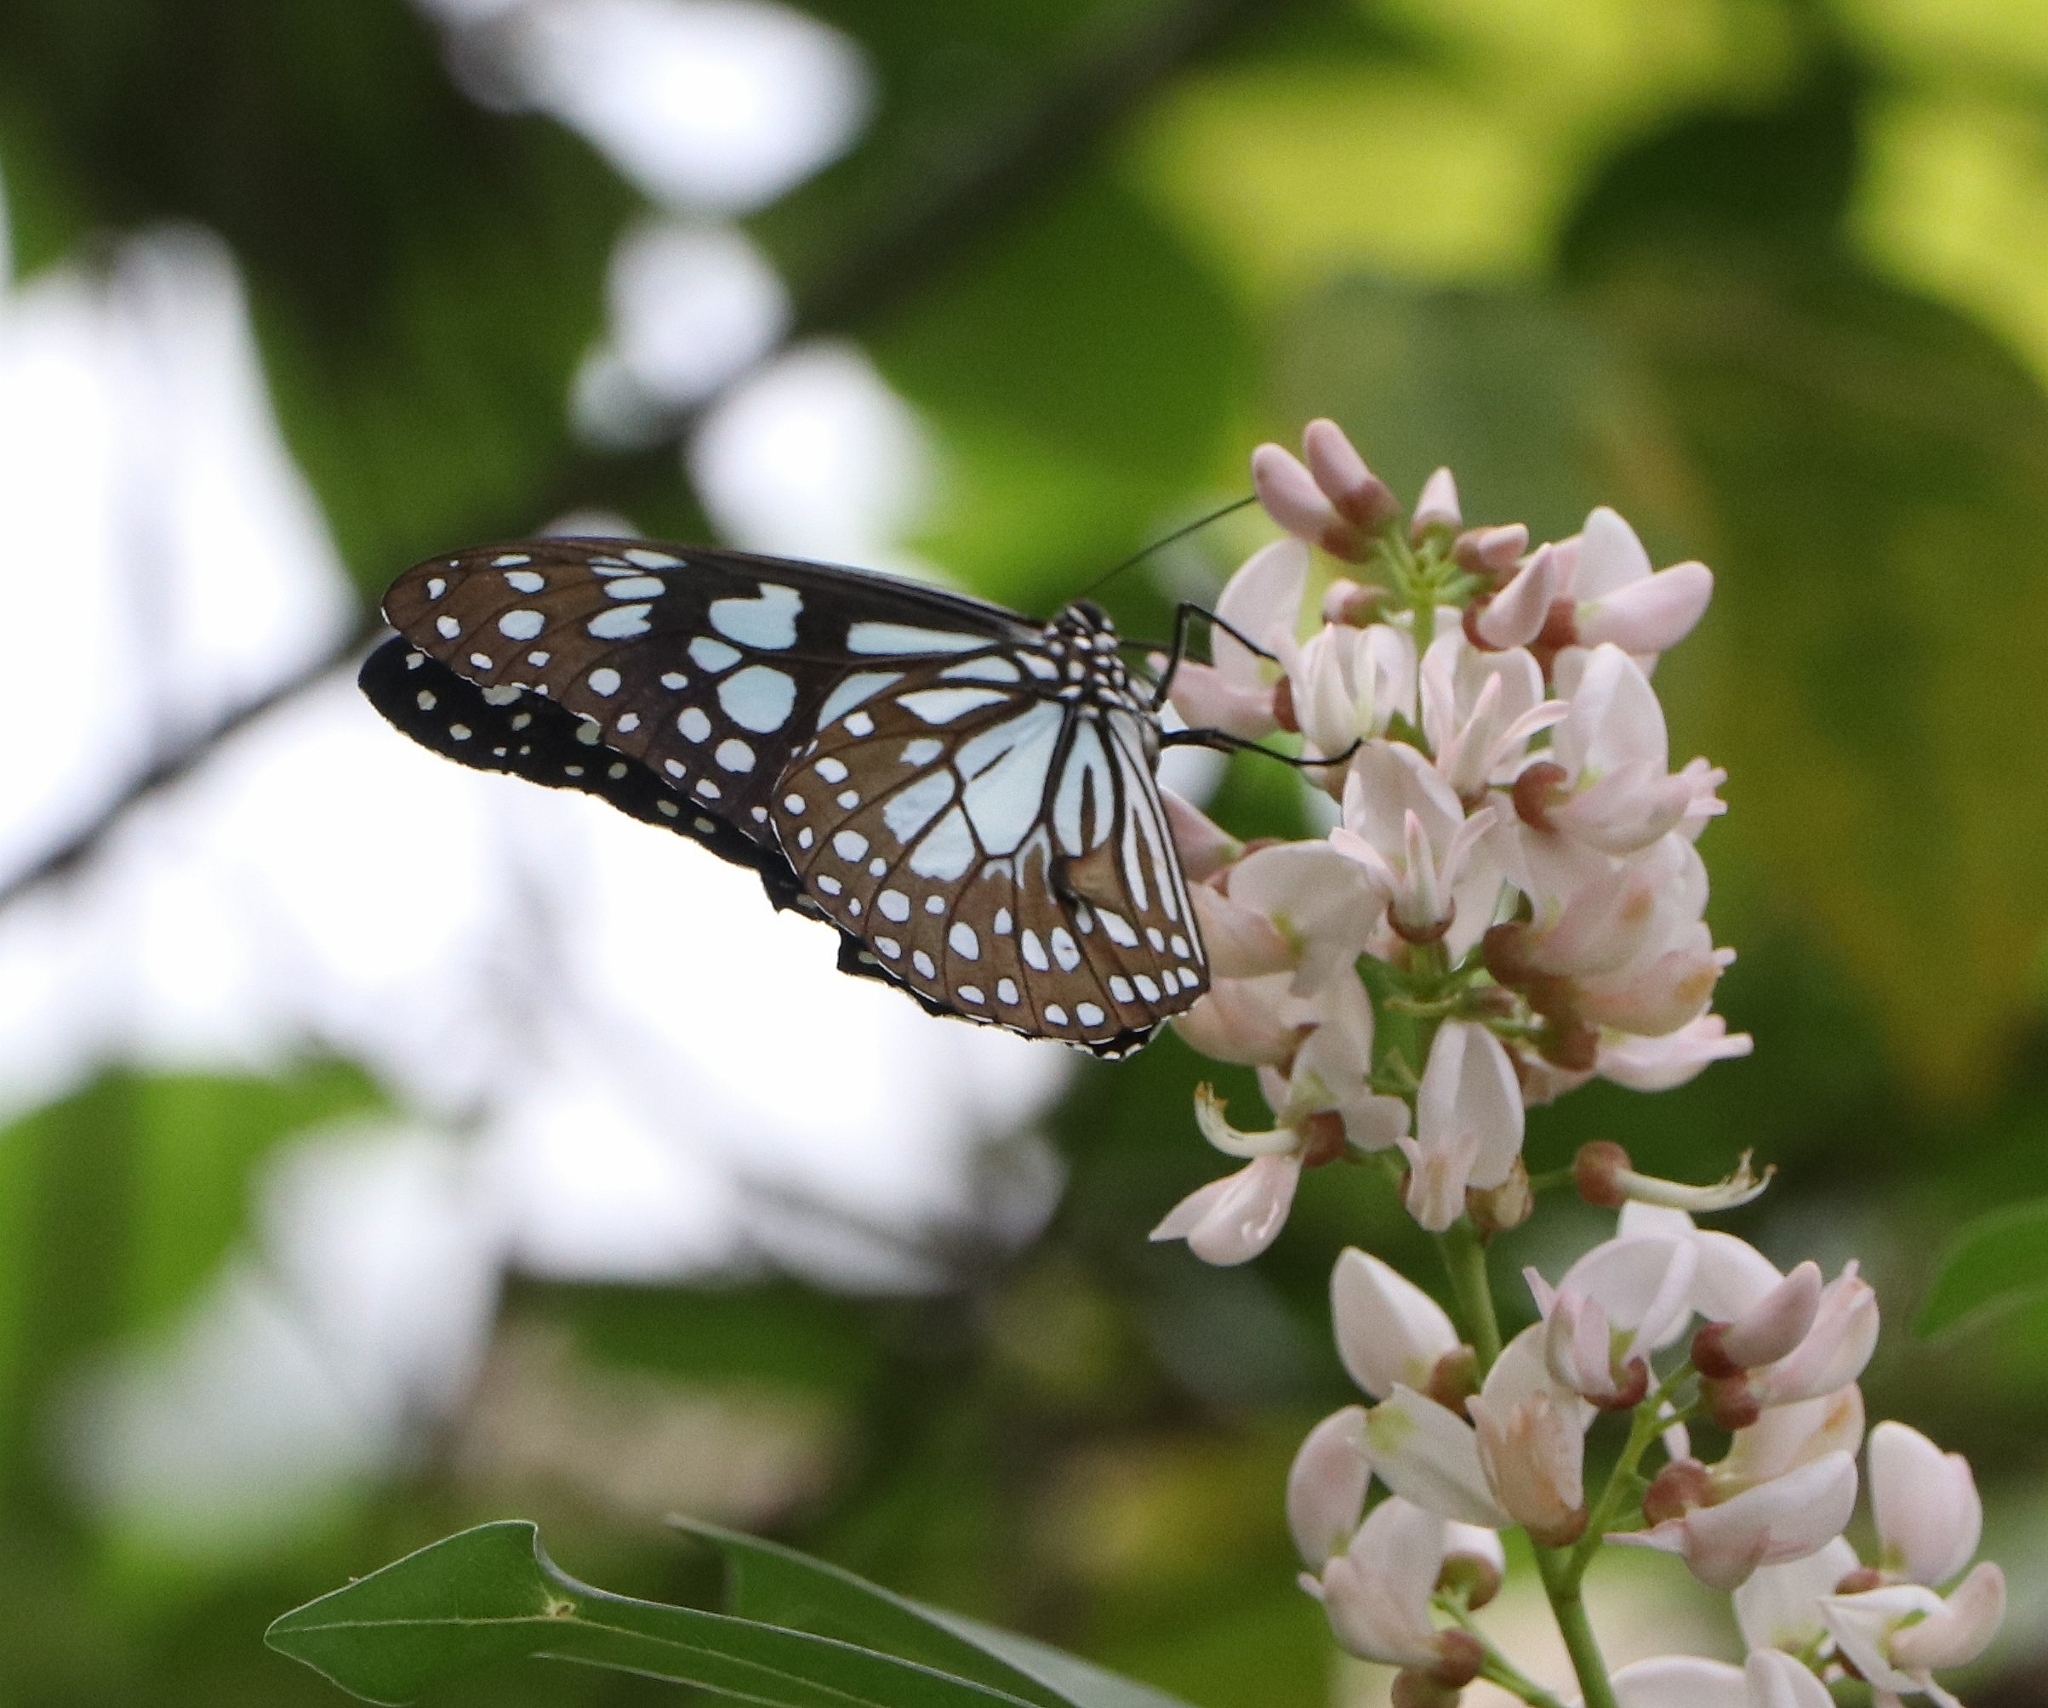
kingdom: Animalia
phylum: Arthropoda
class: Insecta
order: Lepidoptera
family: Nymphalidae
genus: Tirumala
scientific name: Tirumala limniace
